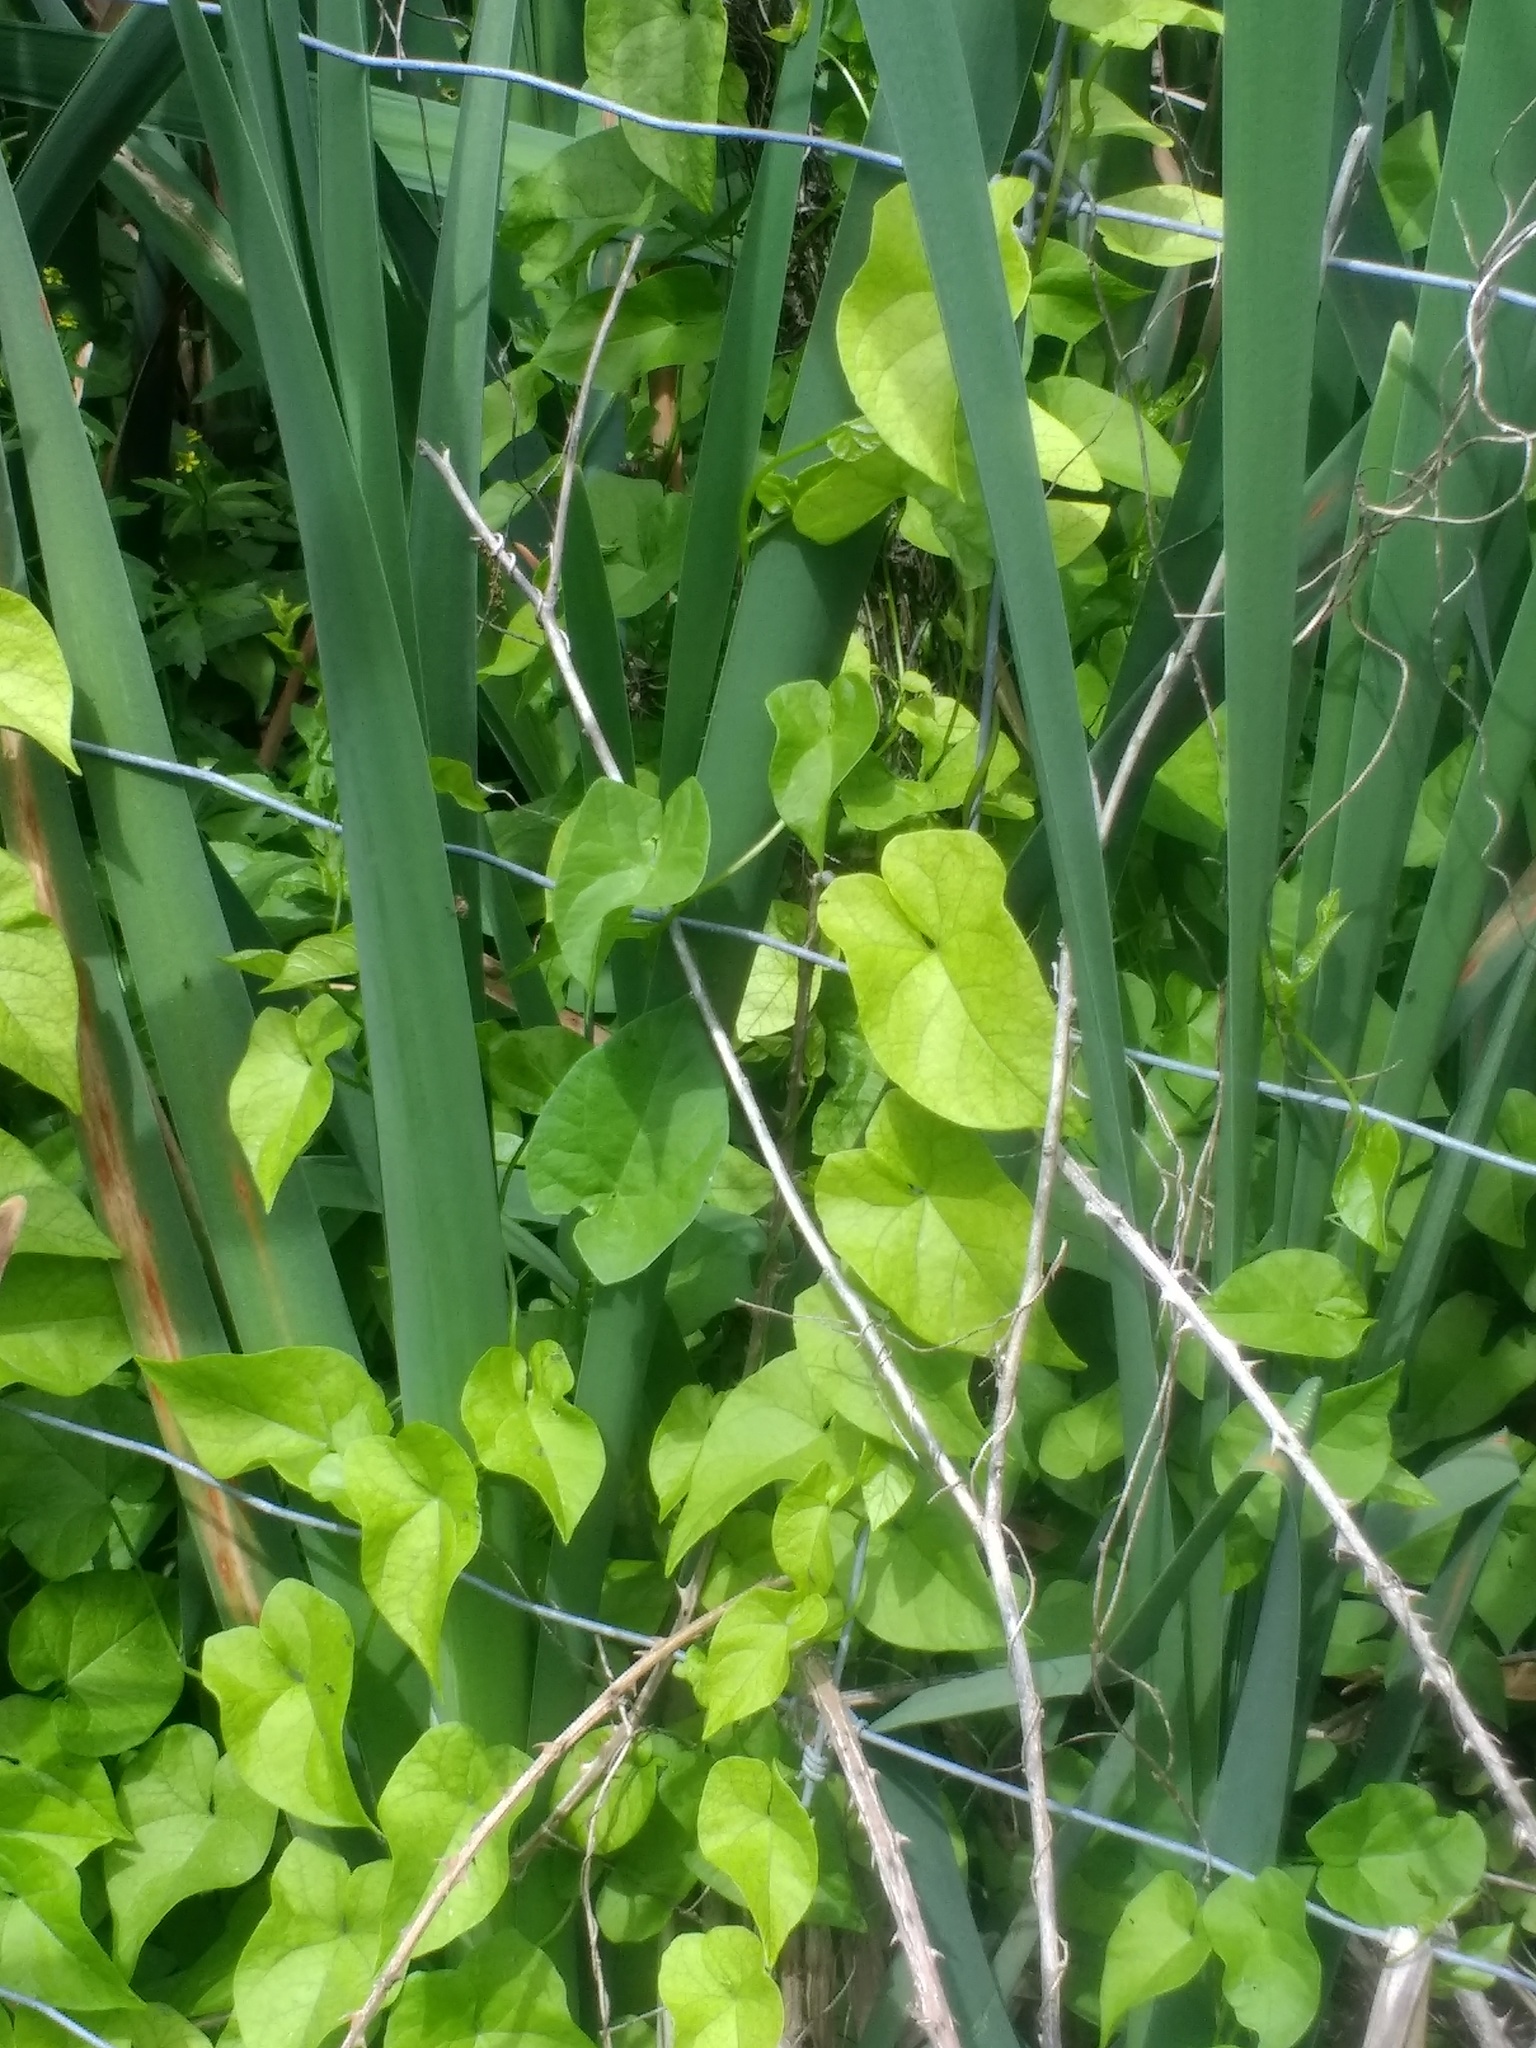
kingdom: Plantae
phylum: Tracheophyta
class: Magnoliopsida
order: Solanales
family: Convolvulaceae
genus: Calystegia
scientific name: Calystegia sepium
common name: Hedge bindweed
